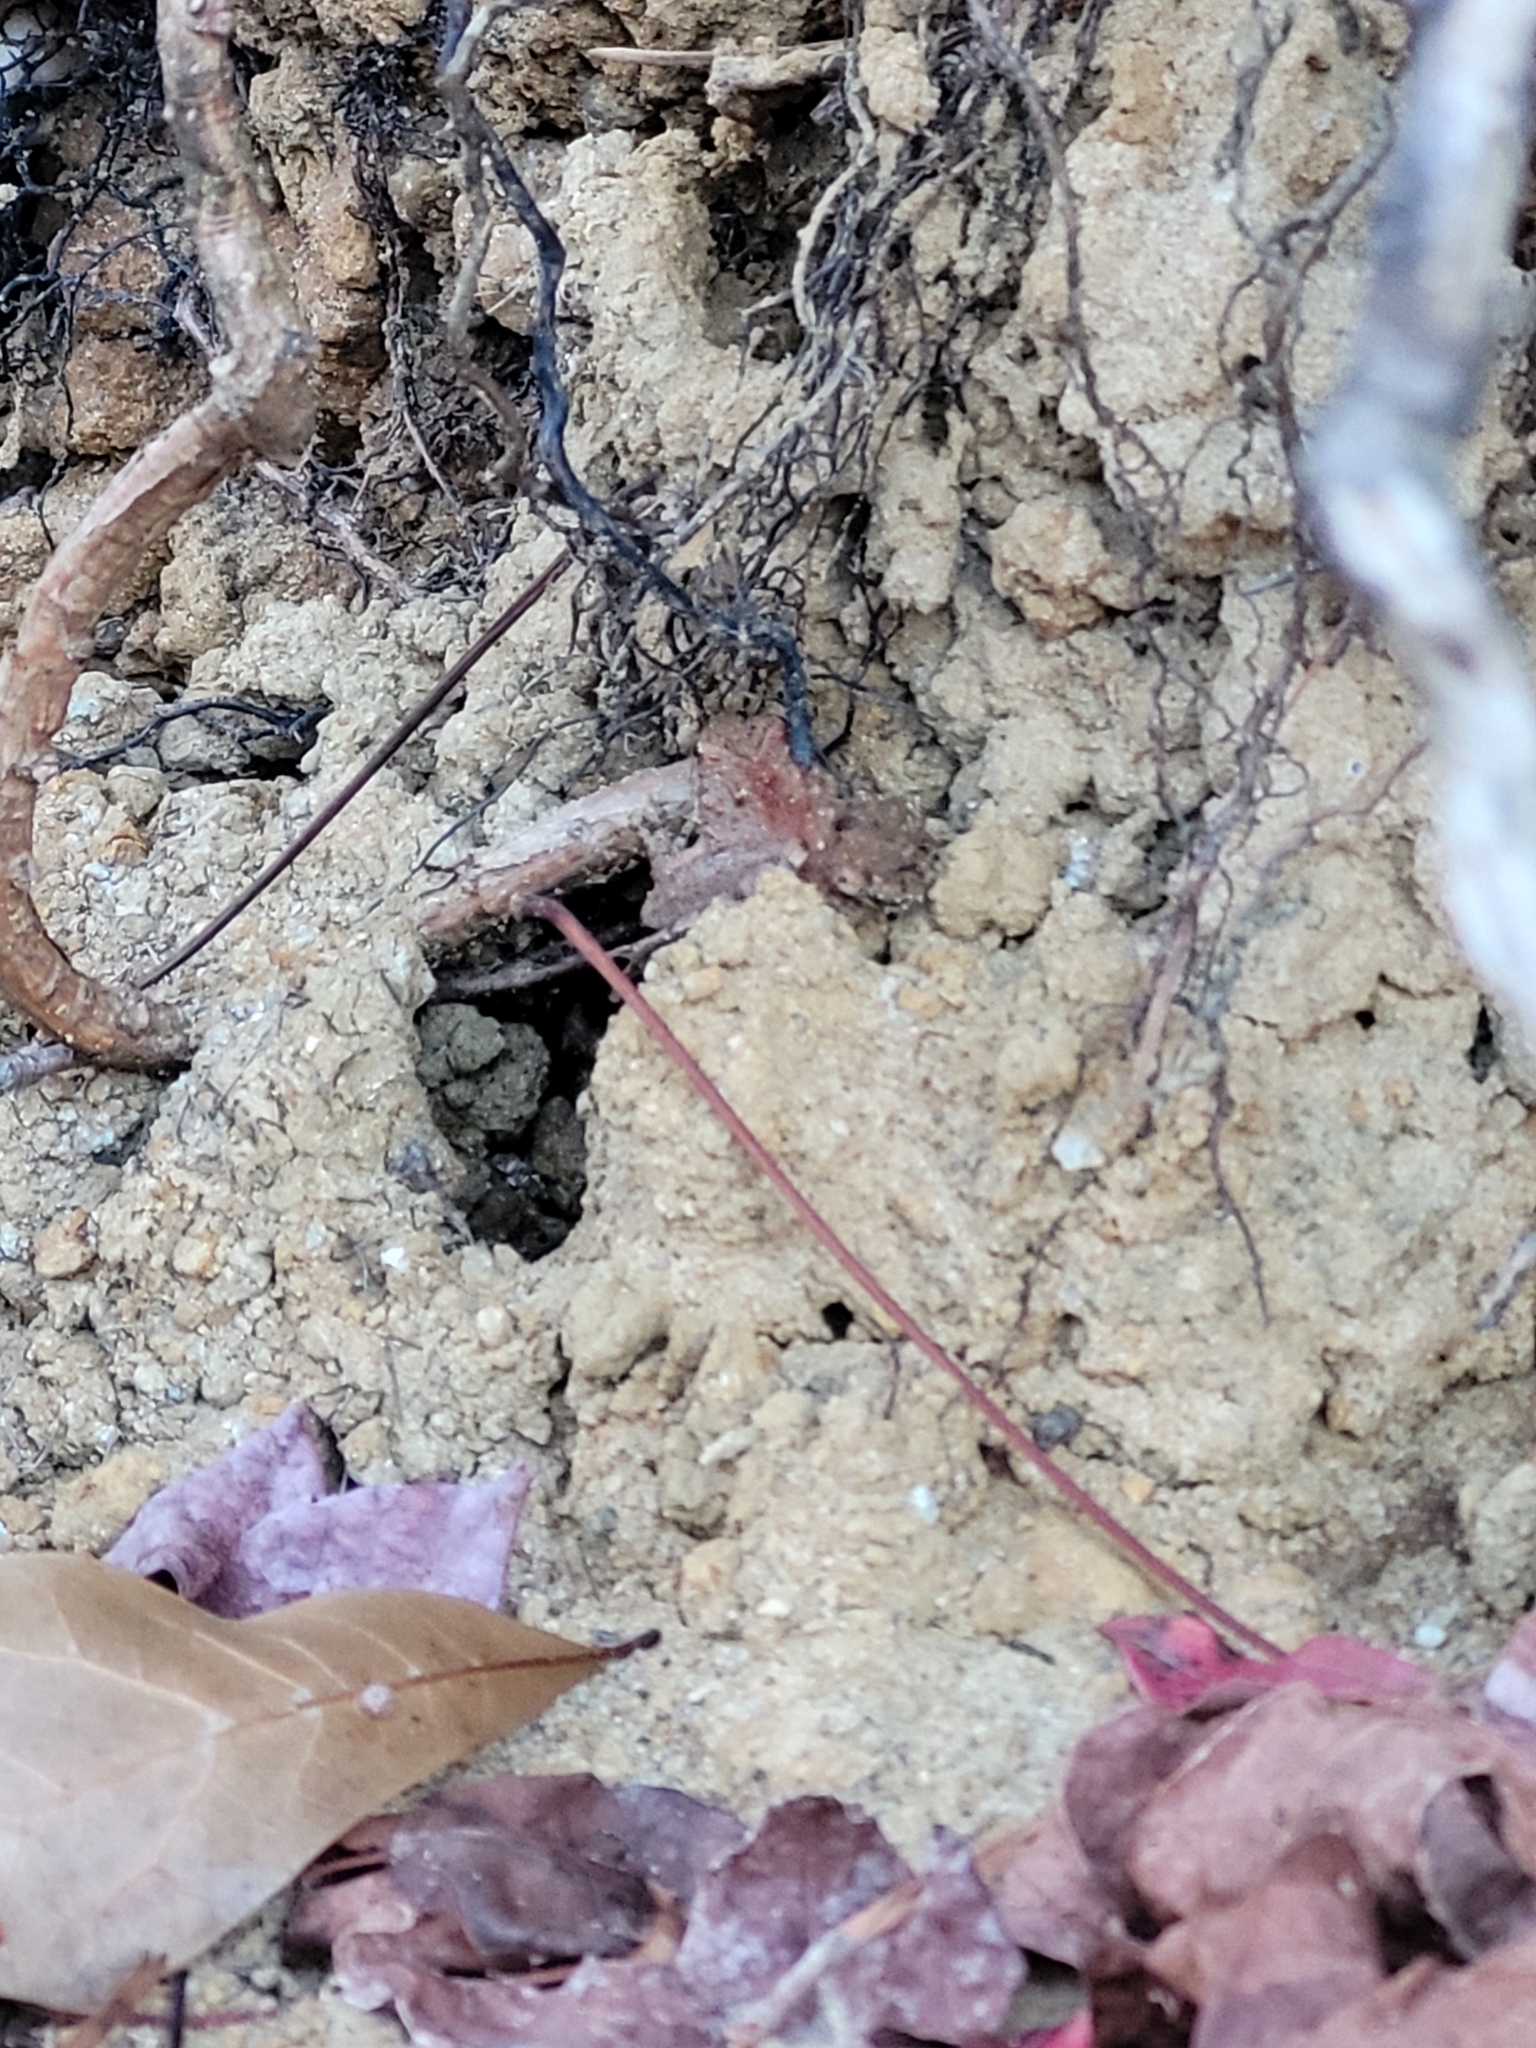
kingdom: Animalia
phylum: Chordata
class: Amphibia
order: Anura
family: Hylidae
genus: Acris
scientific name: Acris crepitans
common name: Northern cricket frog
